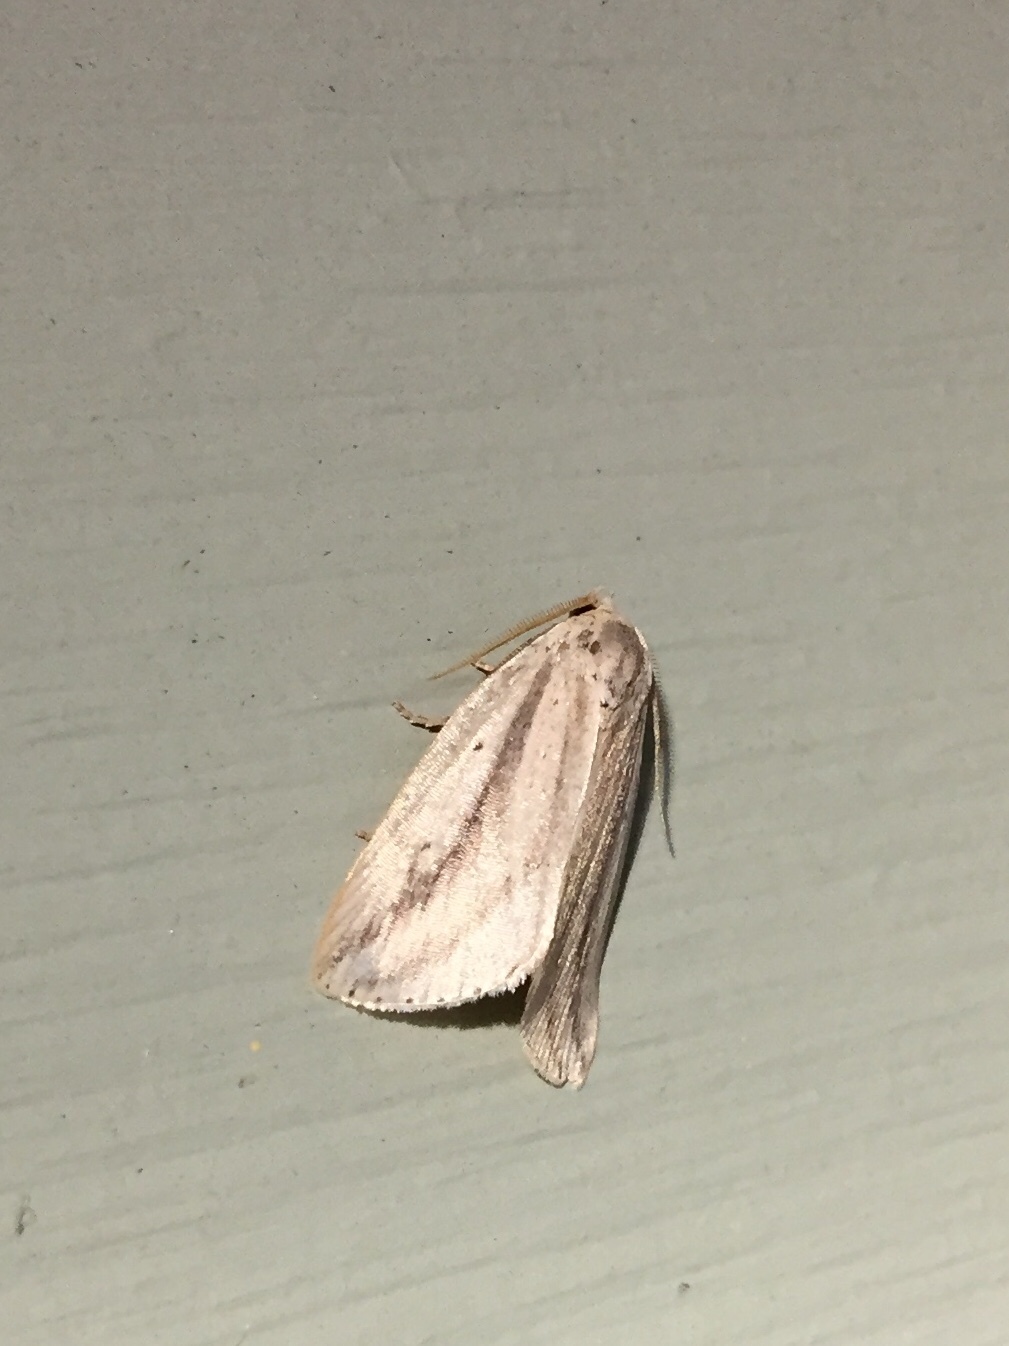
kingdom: Animalia
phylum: Arthropoda
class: Insecta
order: Lepidoptera
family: Noctuidae
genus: Amolita
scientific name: Amolita fessa
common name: Feeble grass moth
